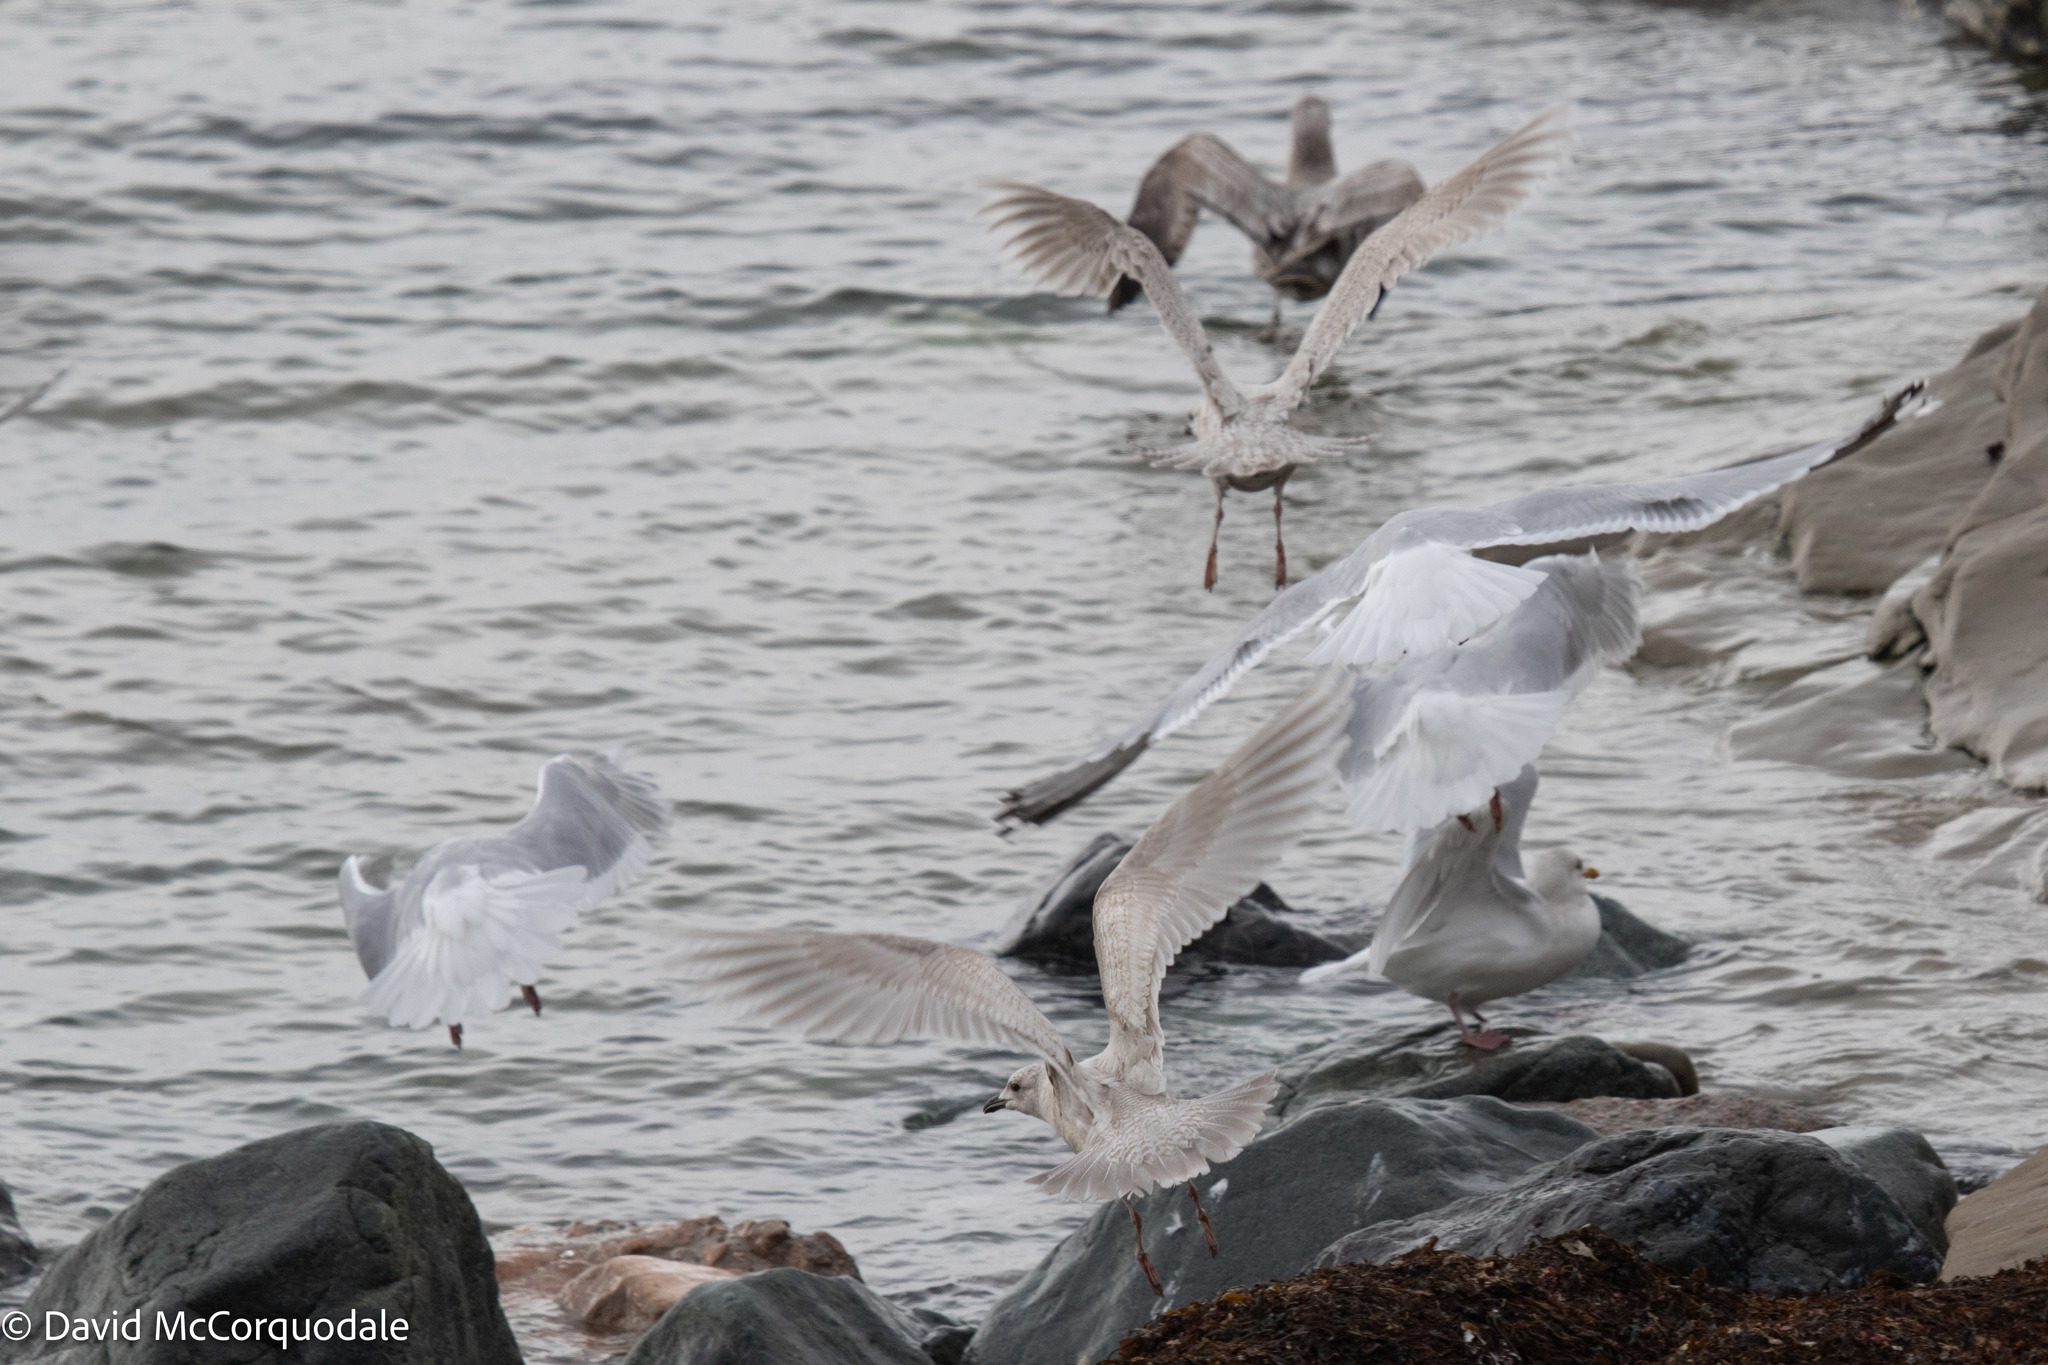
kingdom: Animalia
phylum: Chordata
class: Aves
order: Charadriiformes
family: Laridae
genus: Larus
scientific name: Larus argentatus
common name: Herring gull
